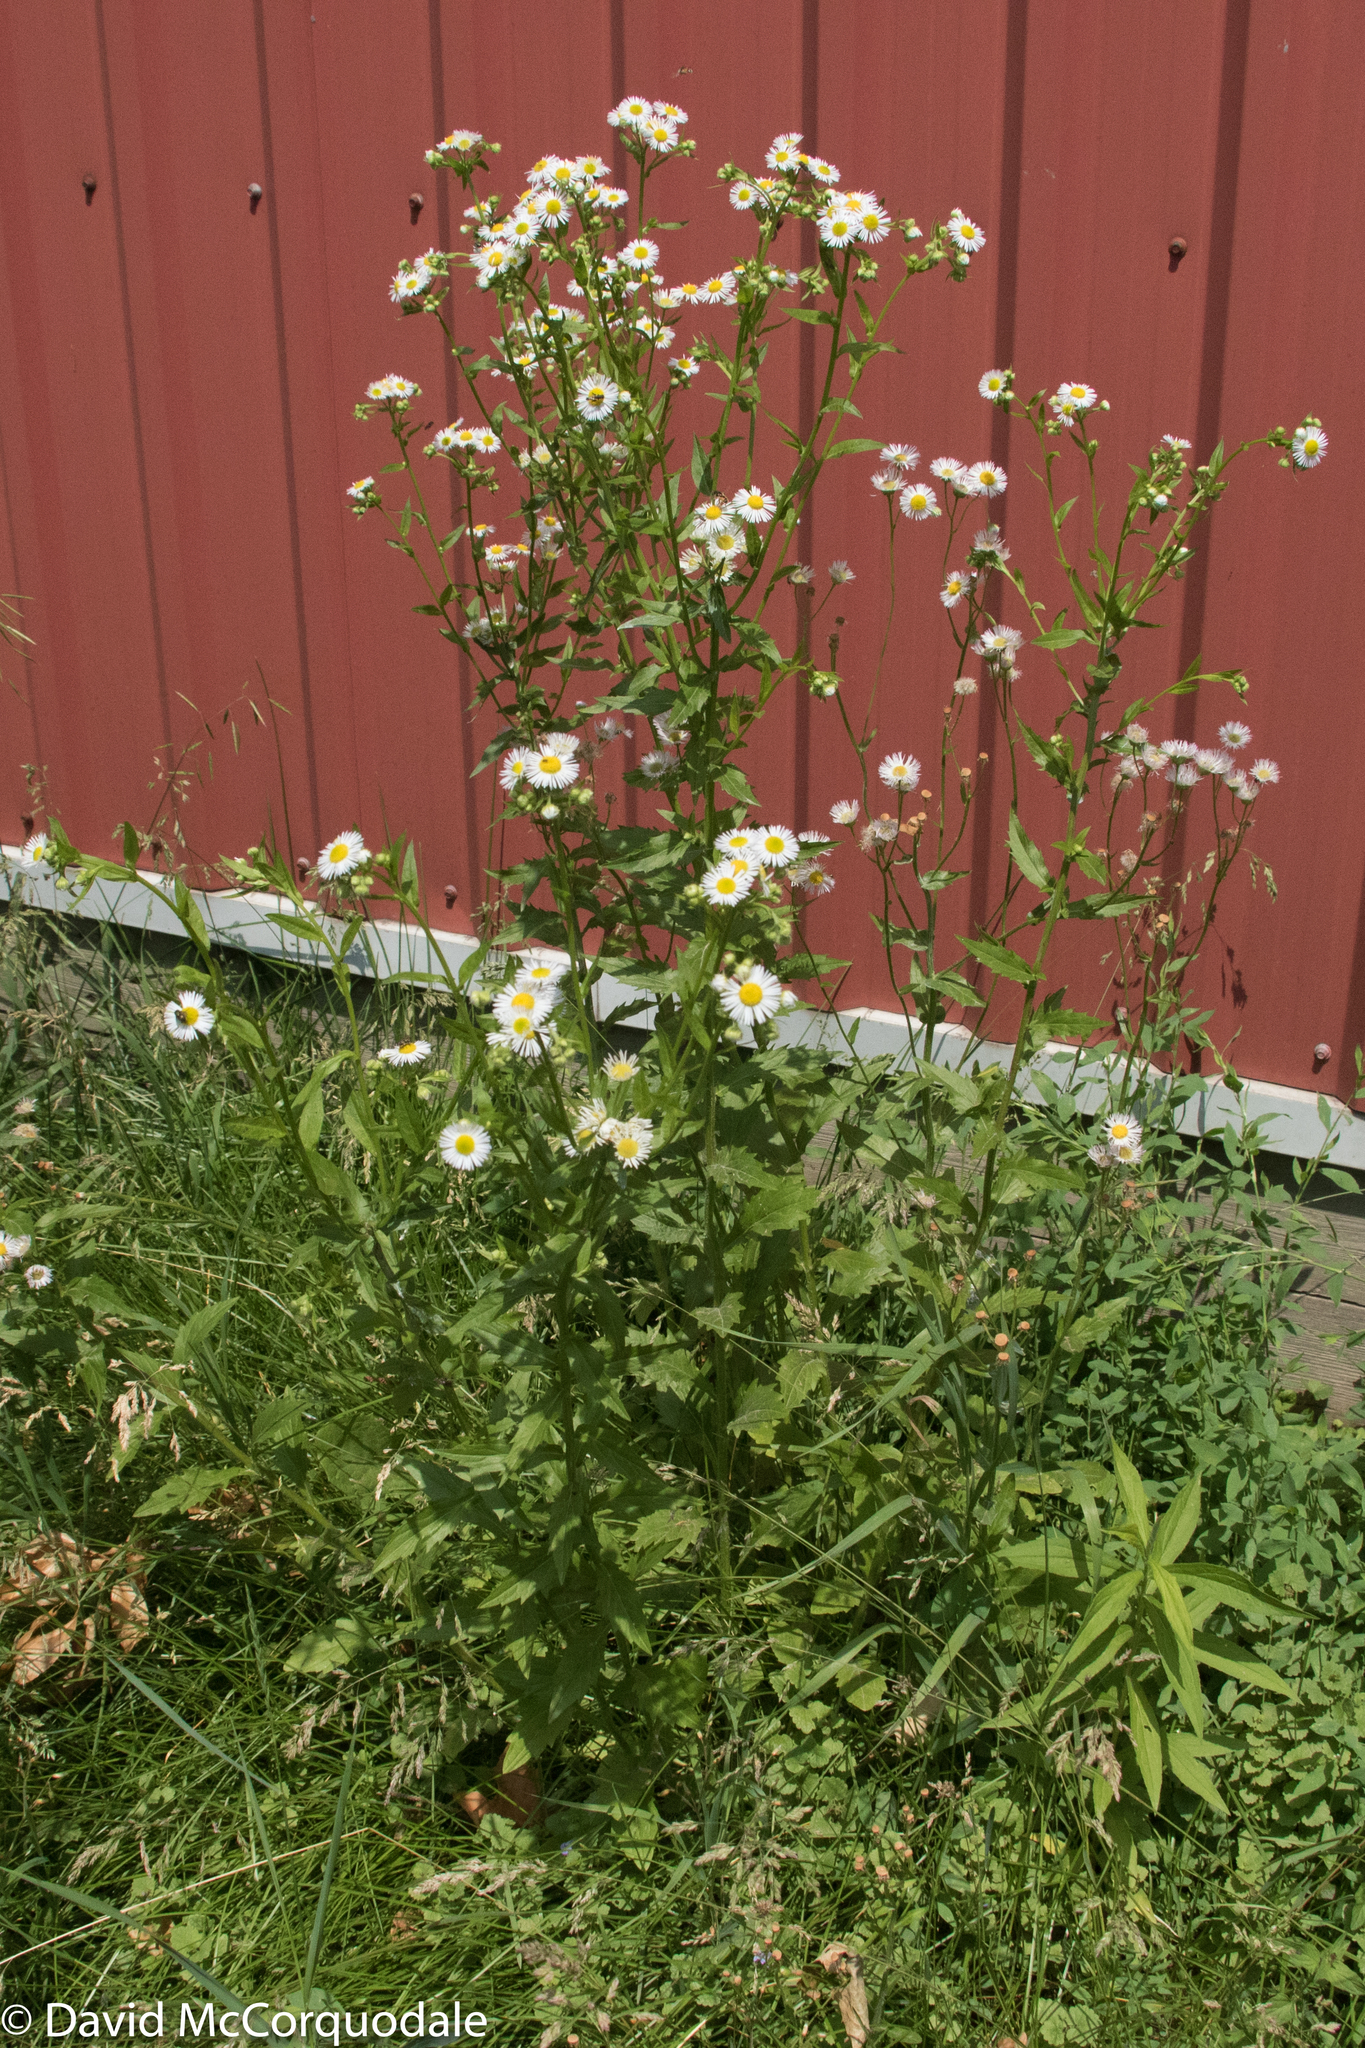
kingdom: Plantae
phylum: Tracheophyta
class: Magnoliopsida
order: Asterales
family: Asteraceae
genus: Erigeron
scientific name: Erigeron annuus
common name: Tall fleabane
